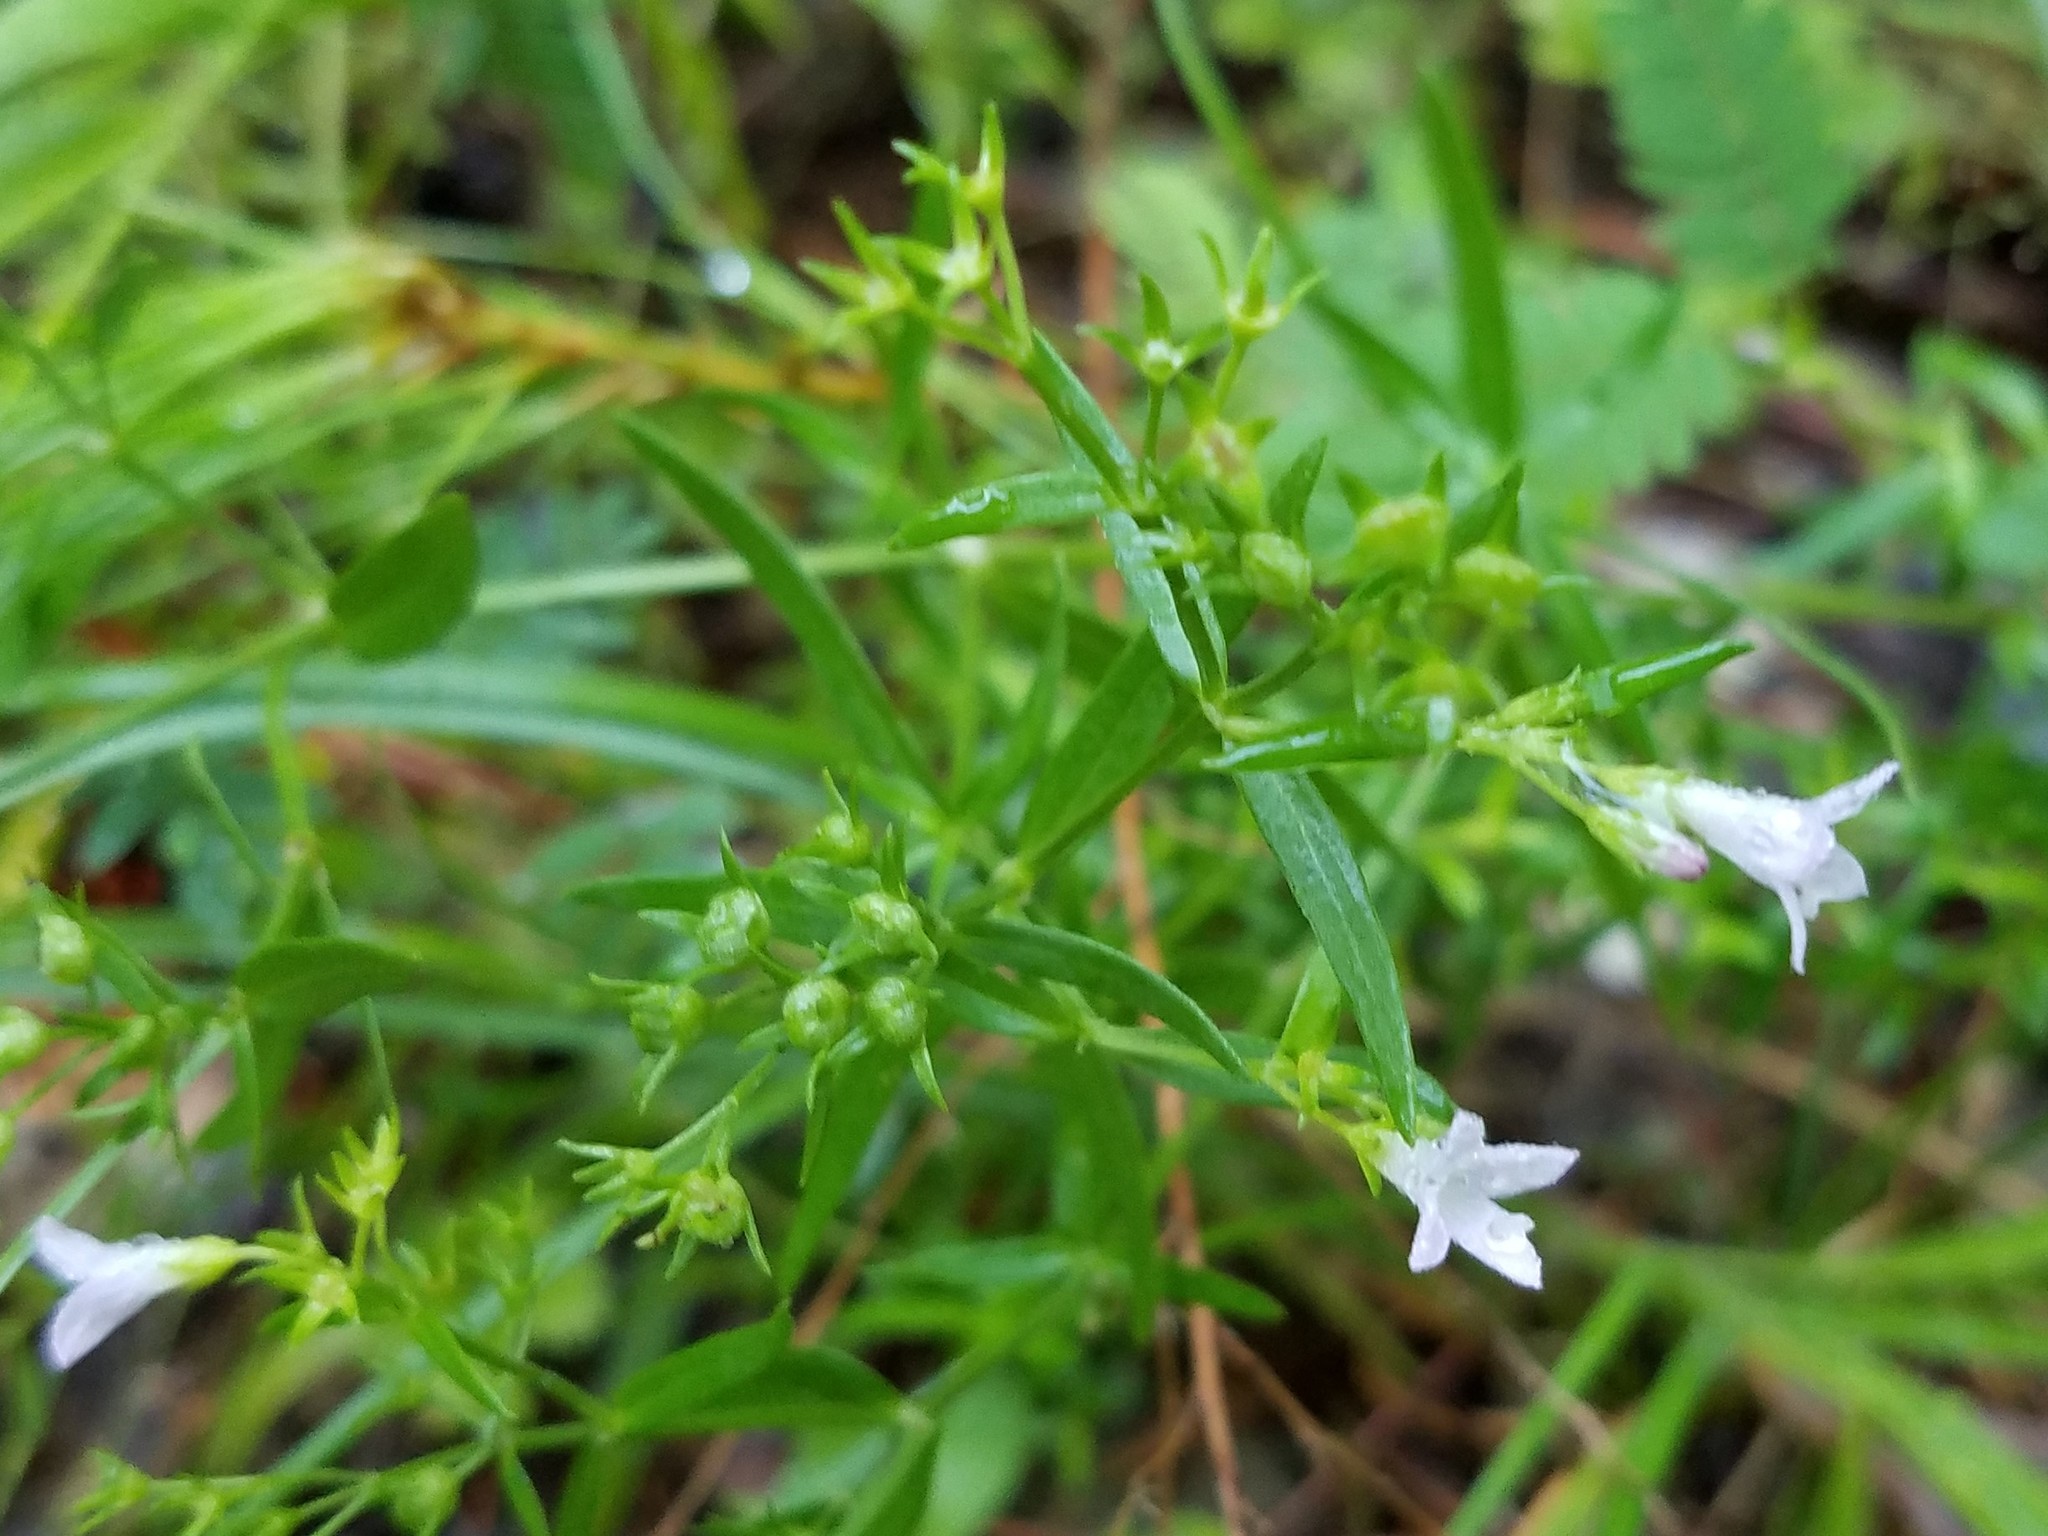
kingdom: Plantae
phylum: Tracheophyta
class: Magnoliopsida
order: Gentianales
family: Rubiaceae
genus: Houstonia
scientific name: Houstonia longifolia
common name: Long-leaved bluets
